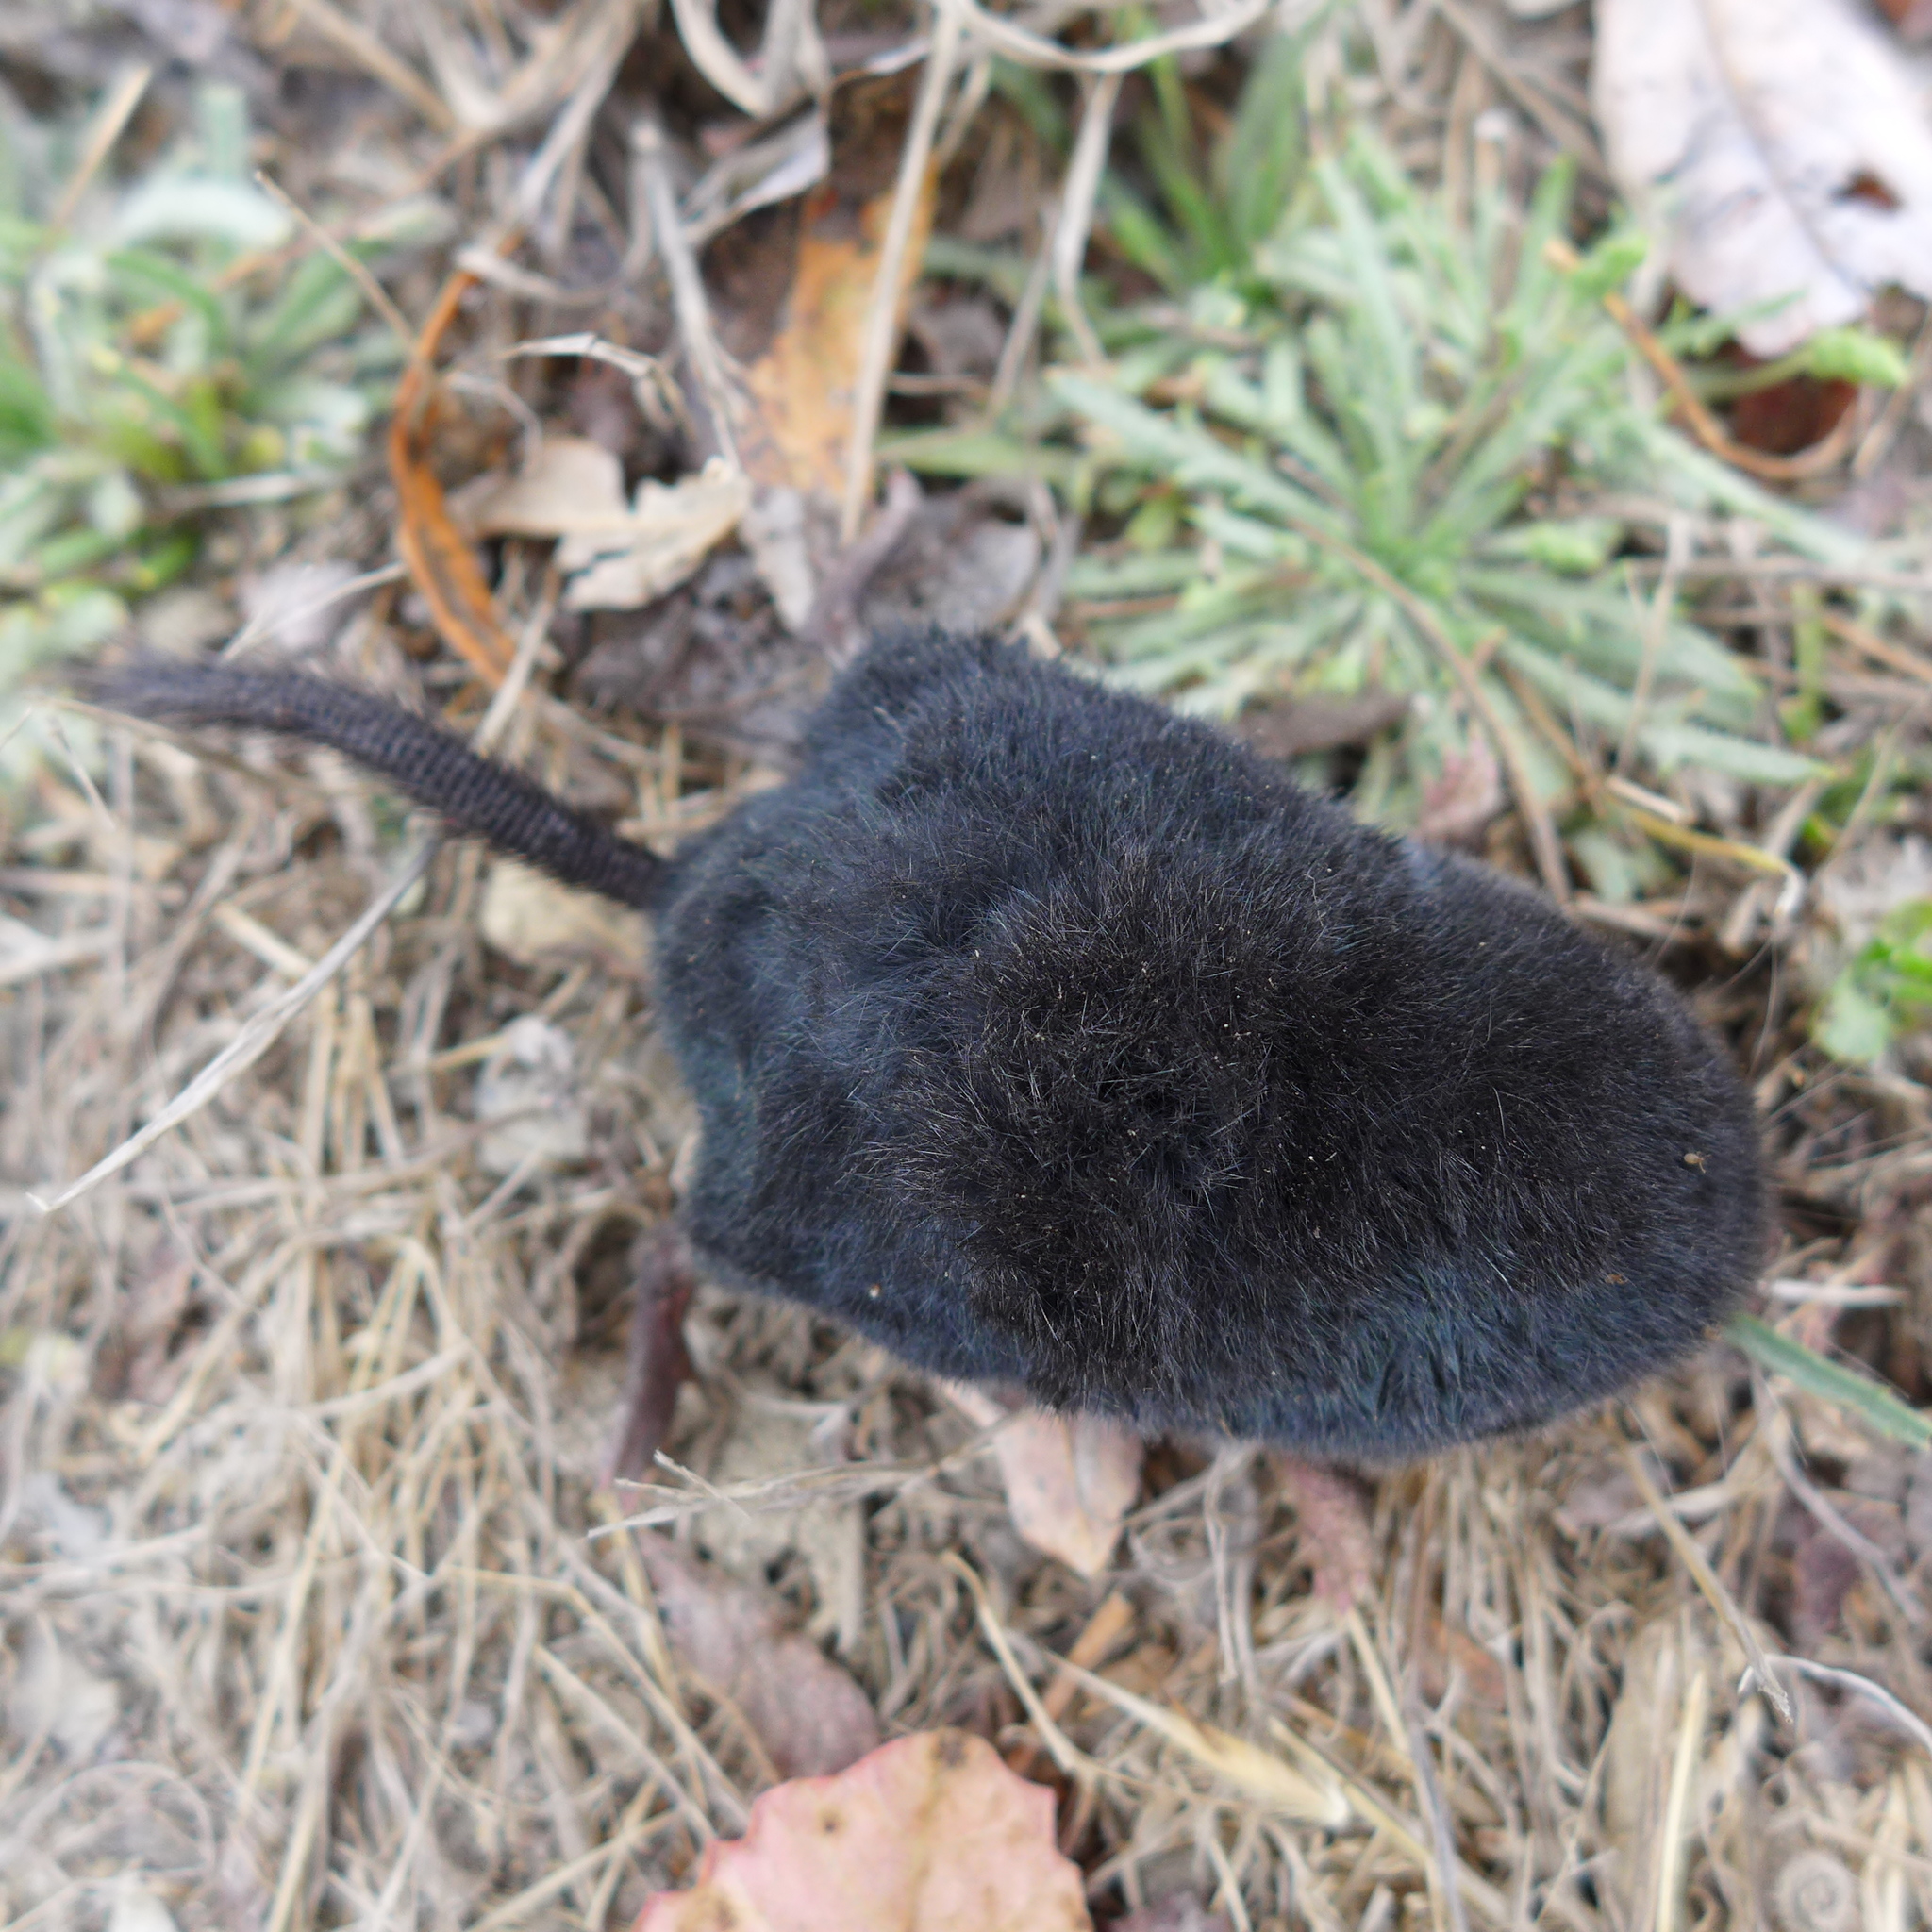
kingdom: Animalia
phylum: Chordata
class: Mammalia
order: Soricomorpha
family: Talpidae
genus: Neurotrichus
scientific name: Neurotrichus gibbsii
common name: American shrew mole
